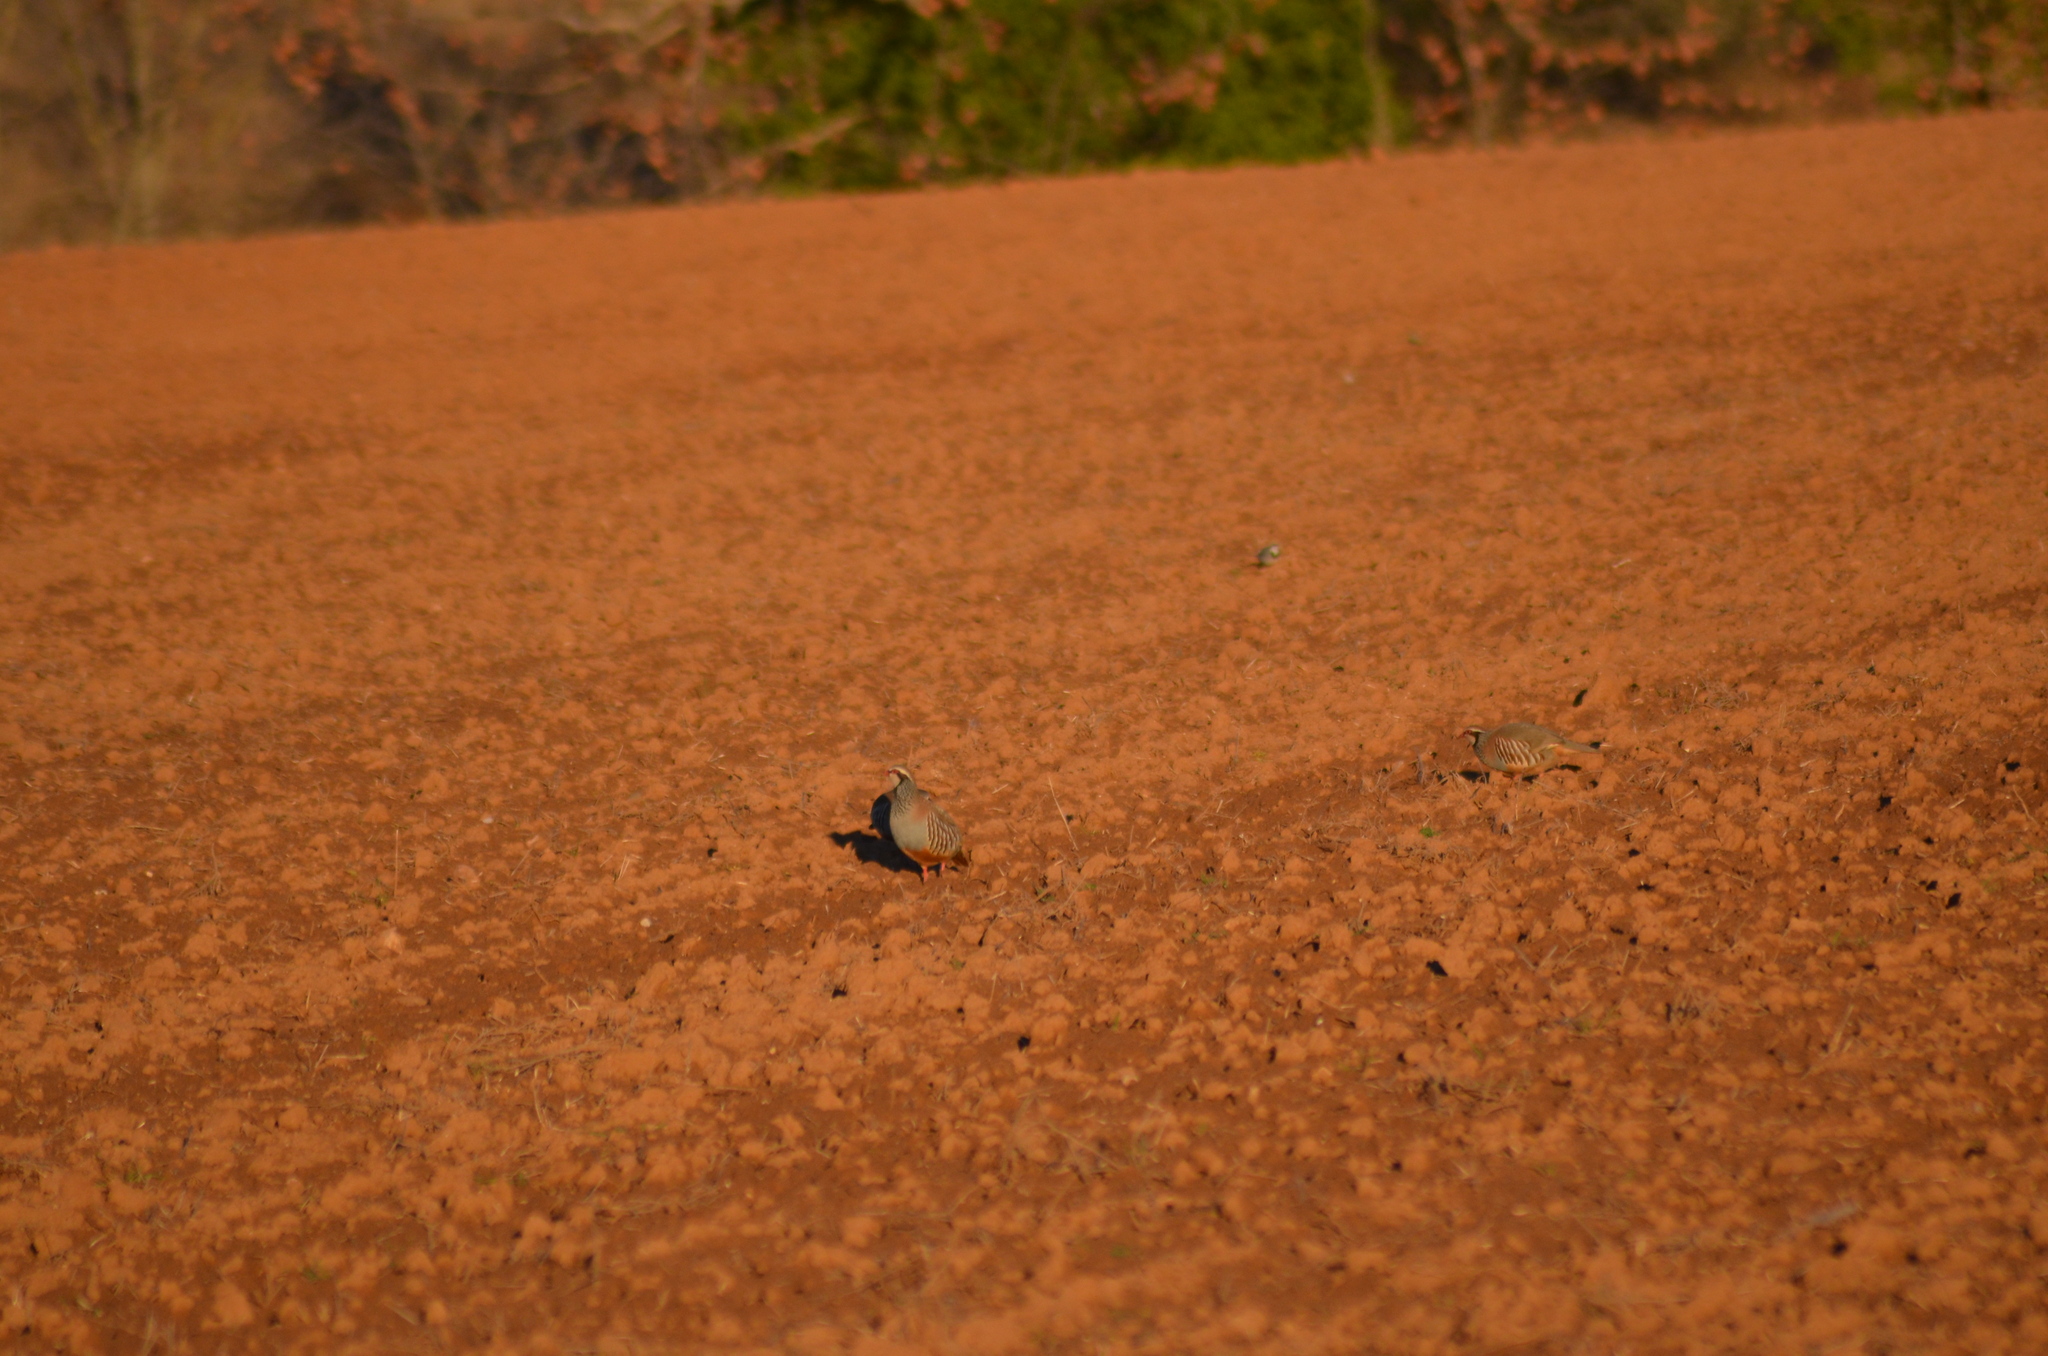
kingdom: Animalia
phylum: Chordata
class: Aves
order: Galliformes
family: Phasianidae
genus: Alectoris
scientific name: Alectoris rufa
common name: Red-legged partridge
